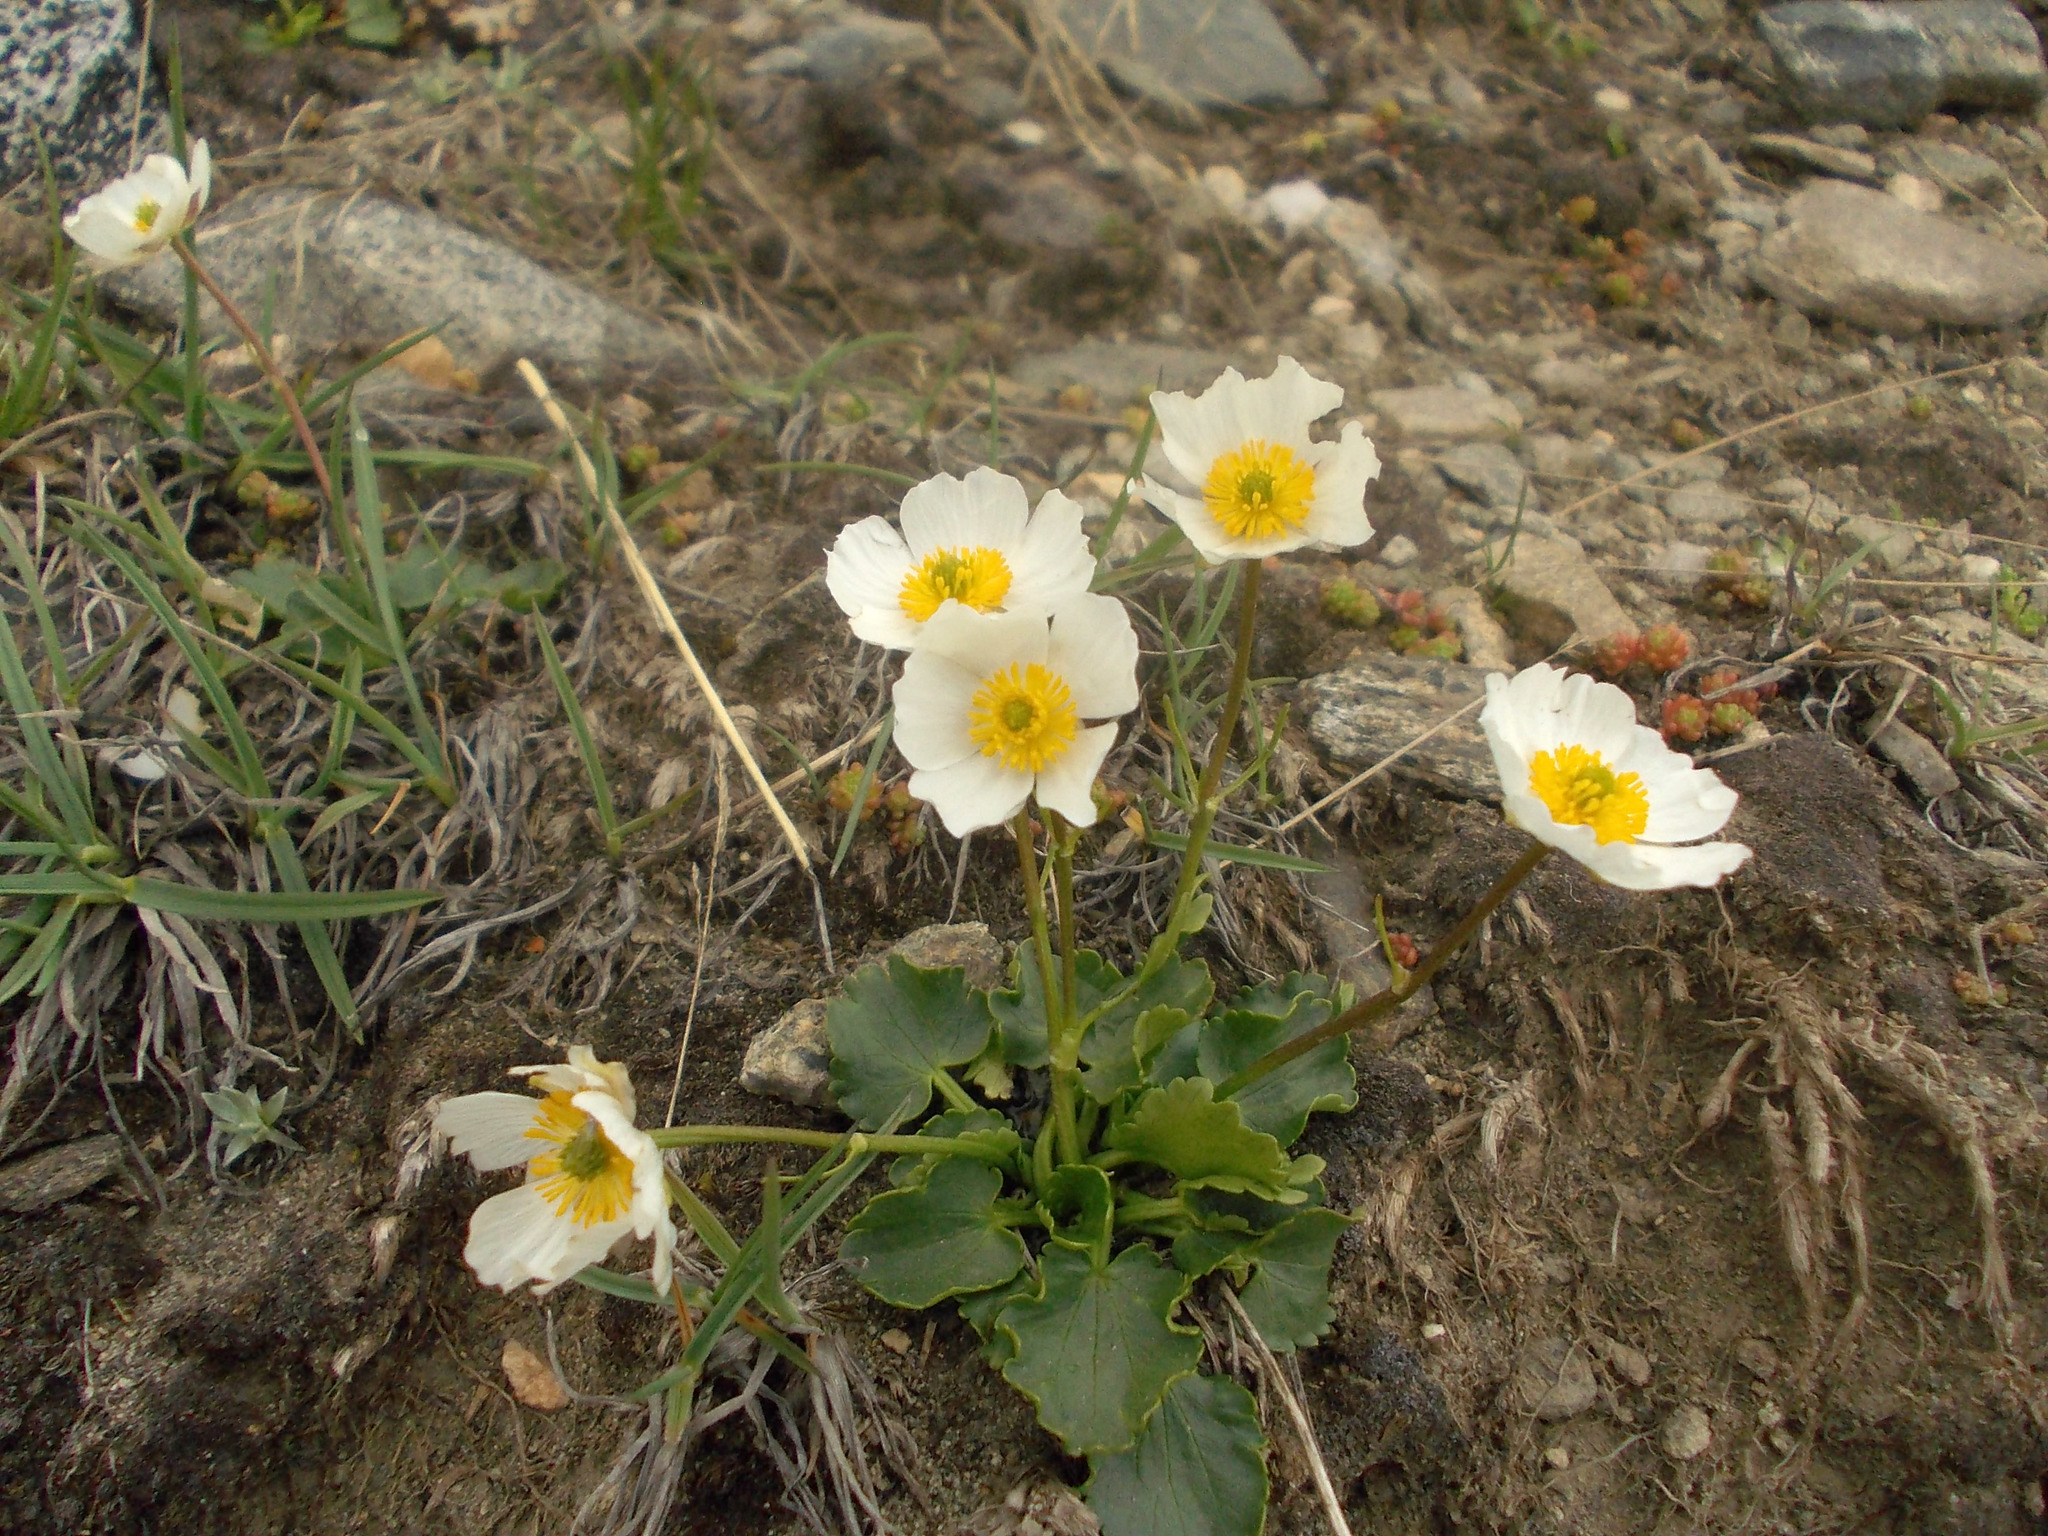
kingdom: Plantae
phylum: Tracheophyta
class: Magnoliopsida
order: Ranunculales
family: Ranunculaceae
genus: Ranunculus
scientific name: Ranunculus crenatus
